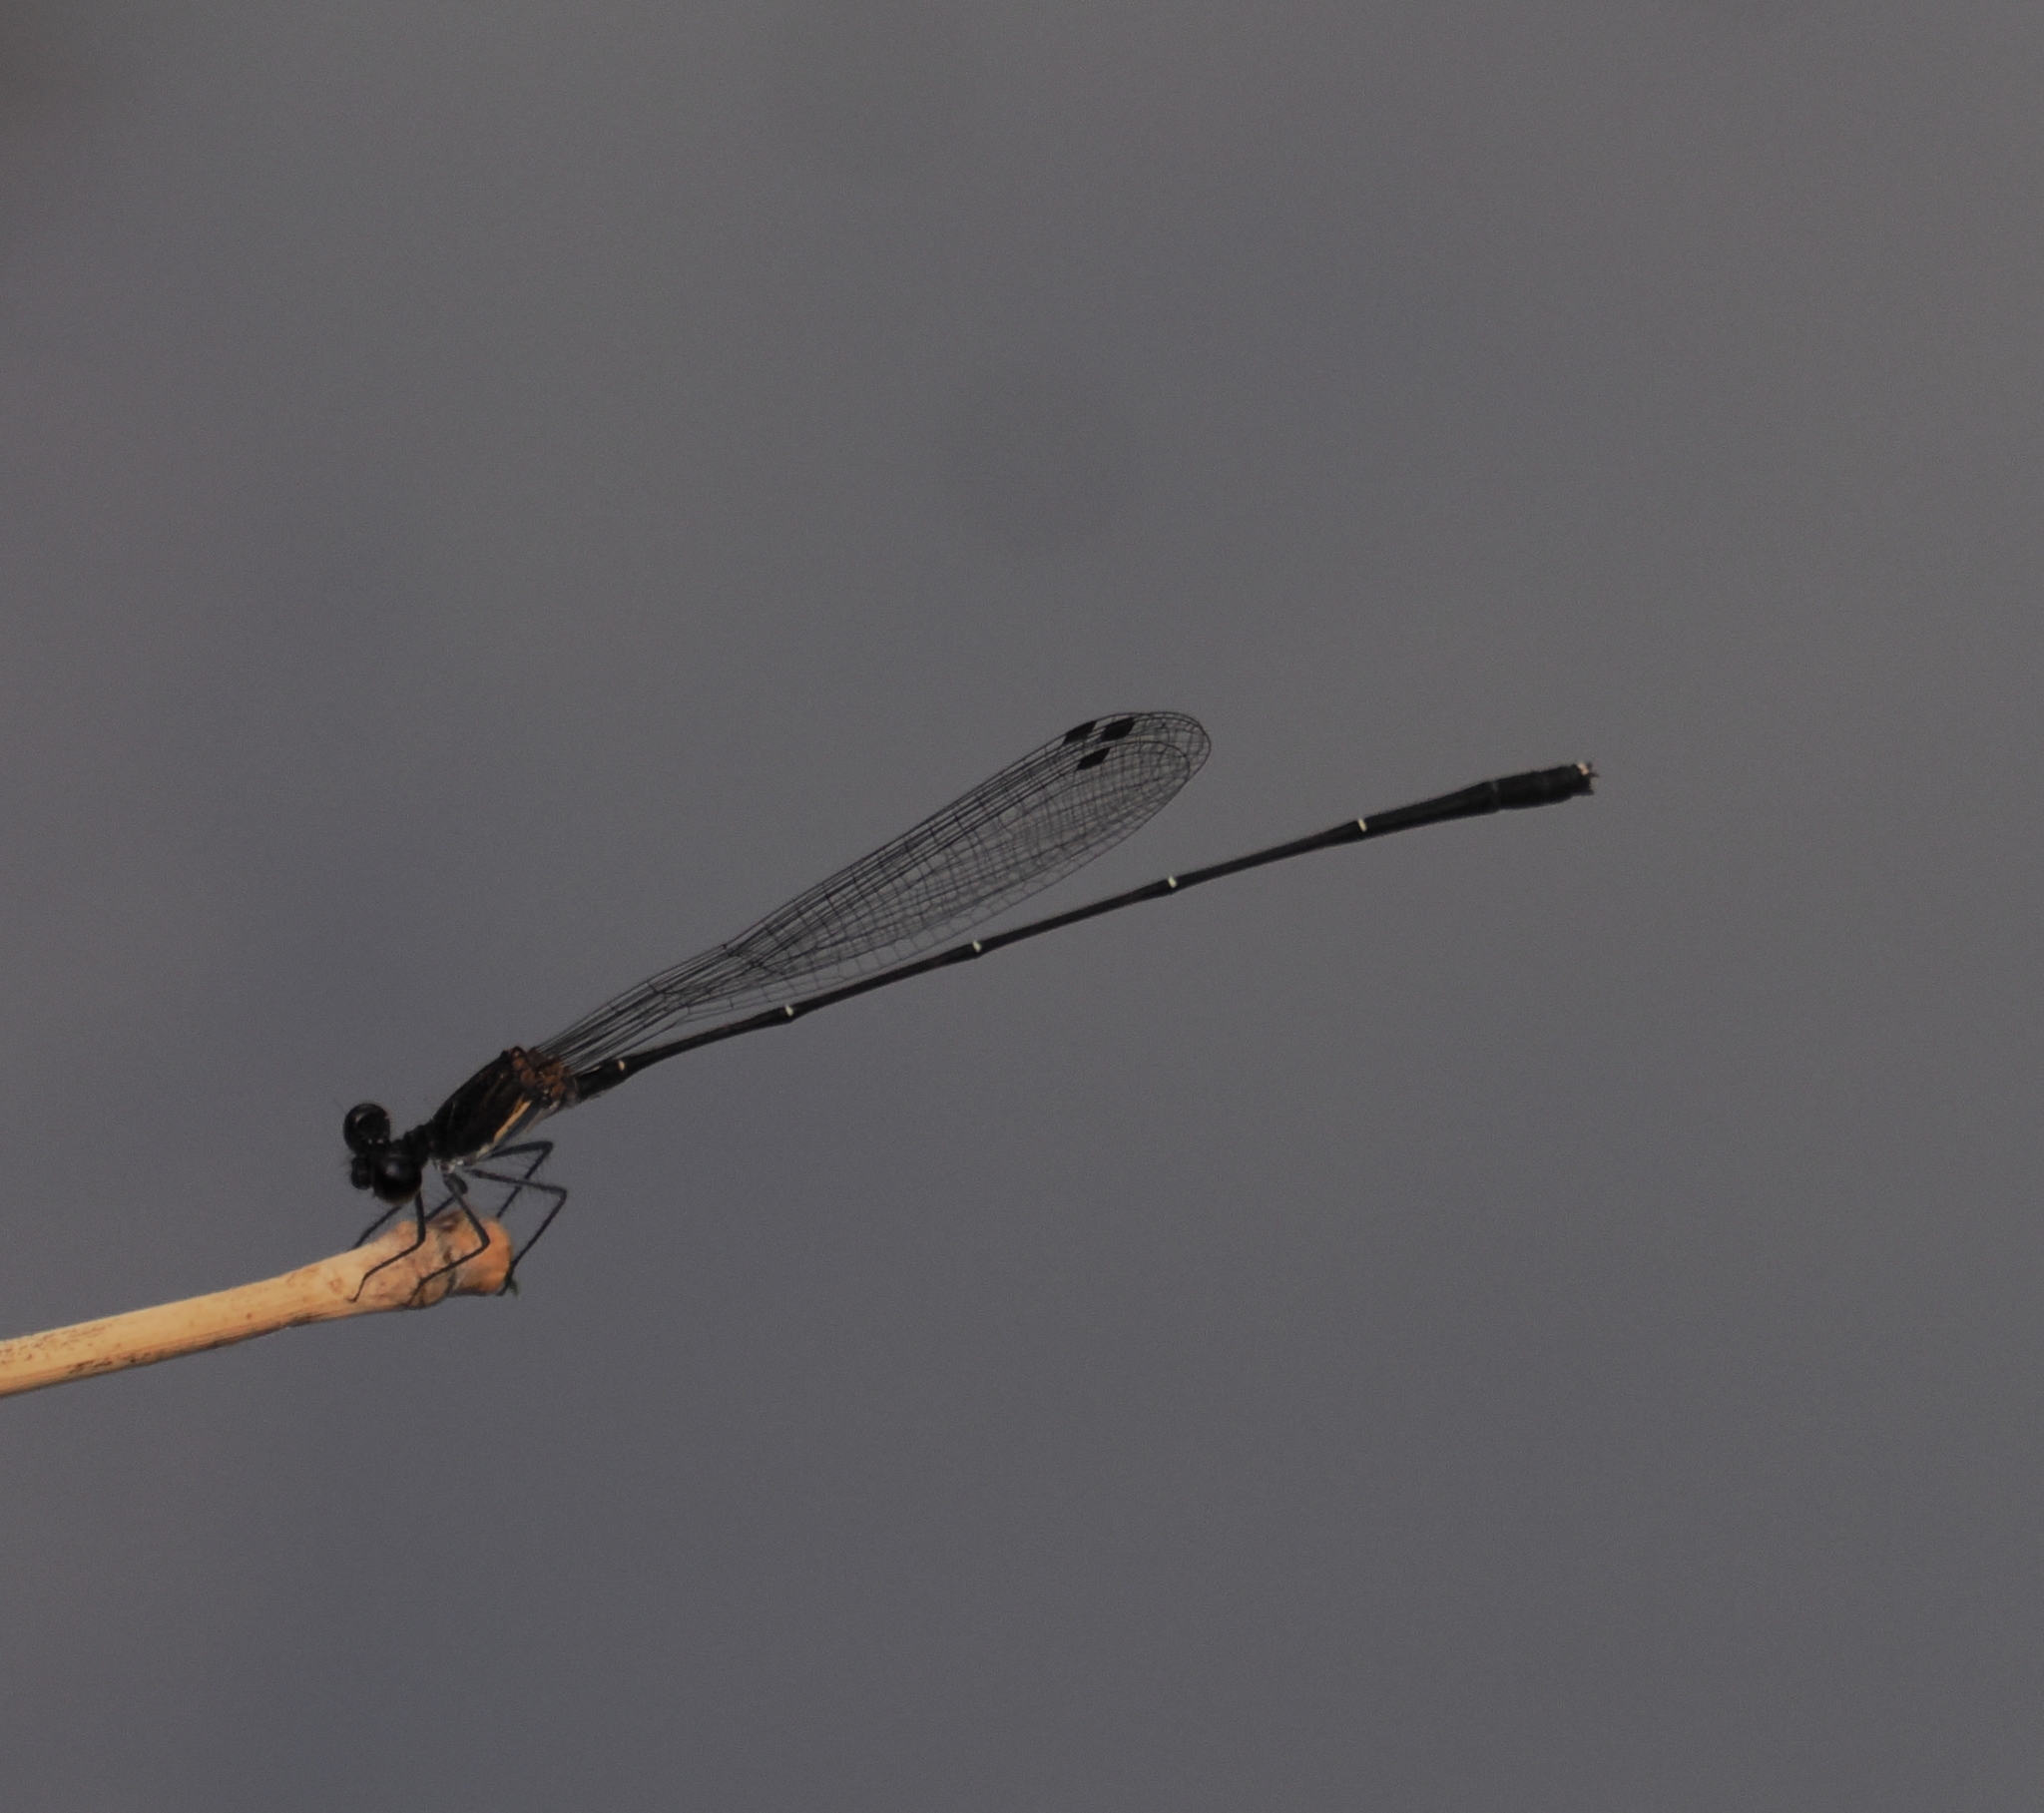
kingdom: Animalia
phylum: Arthropoda
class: Insecta
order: Odonata
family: Platycnemididae
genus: Prodasineura
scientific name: Prodasineura autumnalis
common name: Black threadtail
